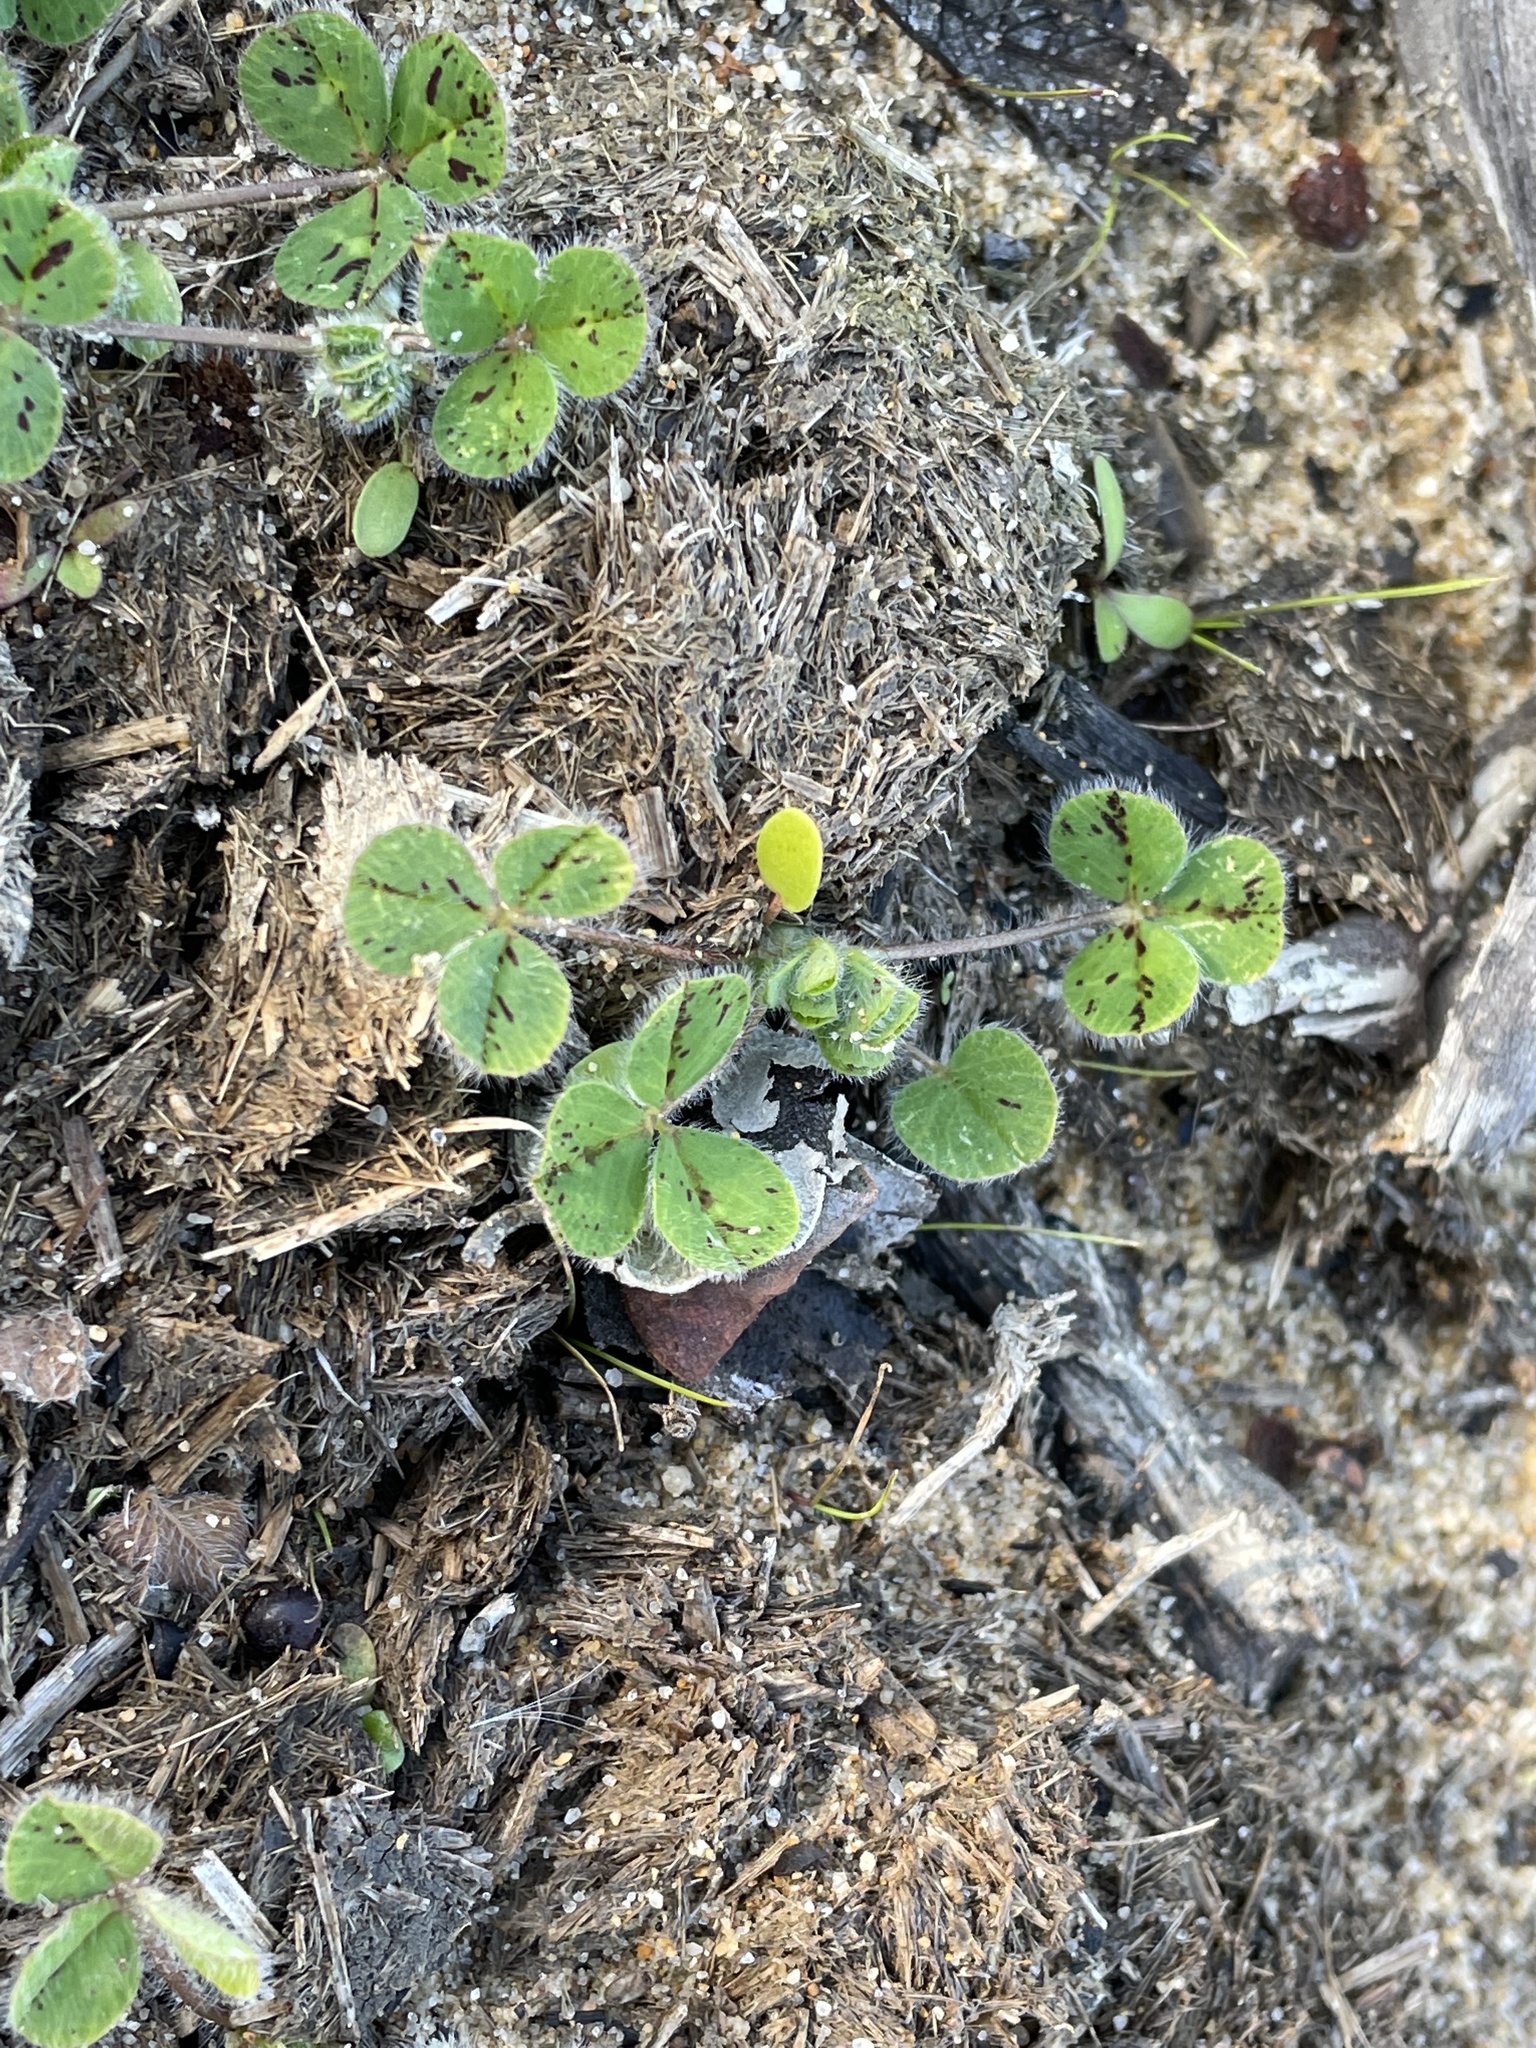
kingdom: Plantae
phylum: Tracheophyta
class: Magnoliopsida
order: Fabales
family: Fabaceae
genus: Trifolium
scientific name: Trifolium subterraneum
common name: Subterranean clover
